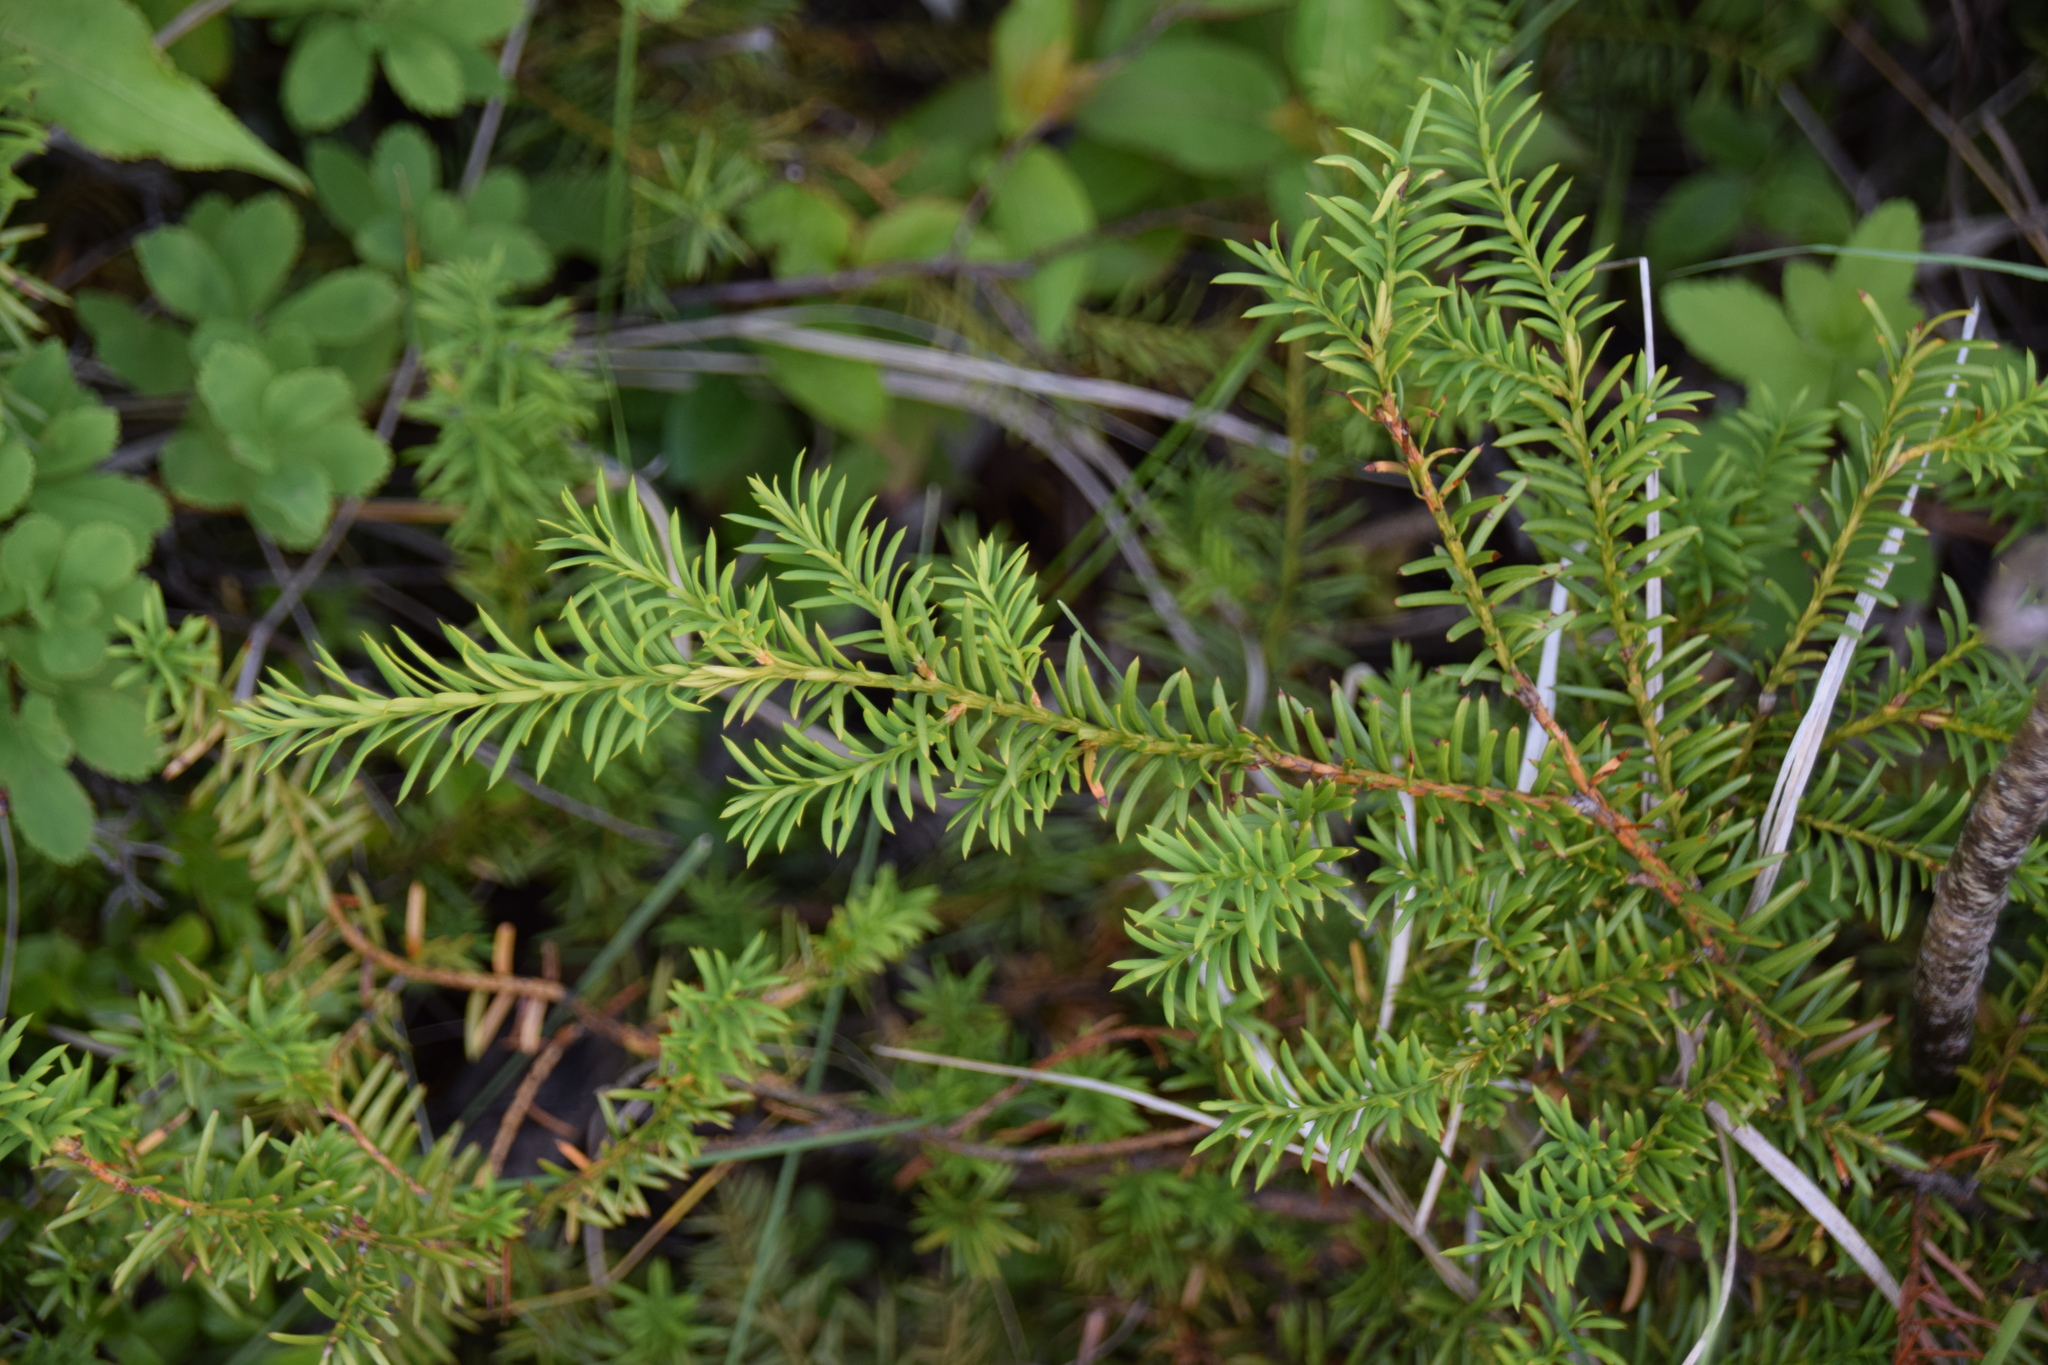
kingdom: Plantae
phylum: Tracheophyta
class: Pinopsida
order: Pinales
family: Taxaceae
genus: Taxus
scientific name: Taxus canadensis
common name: American yew
